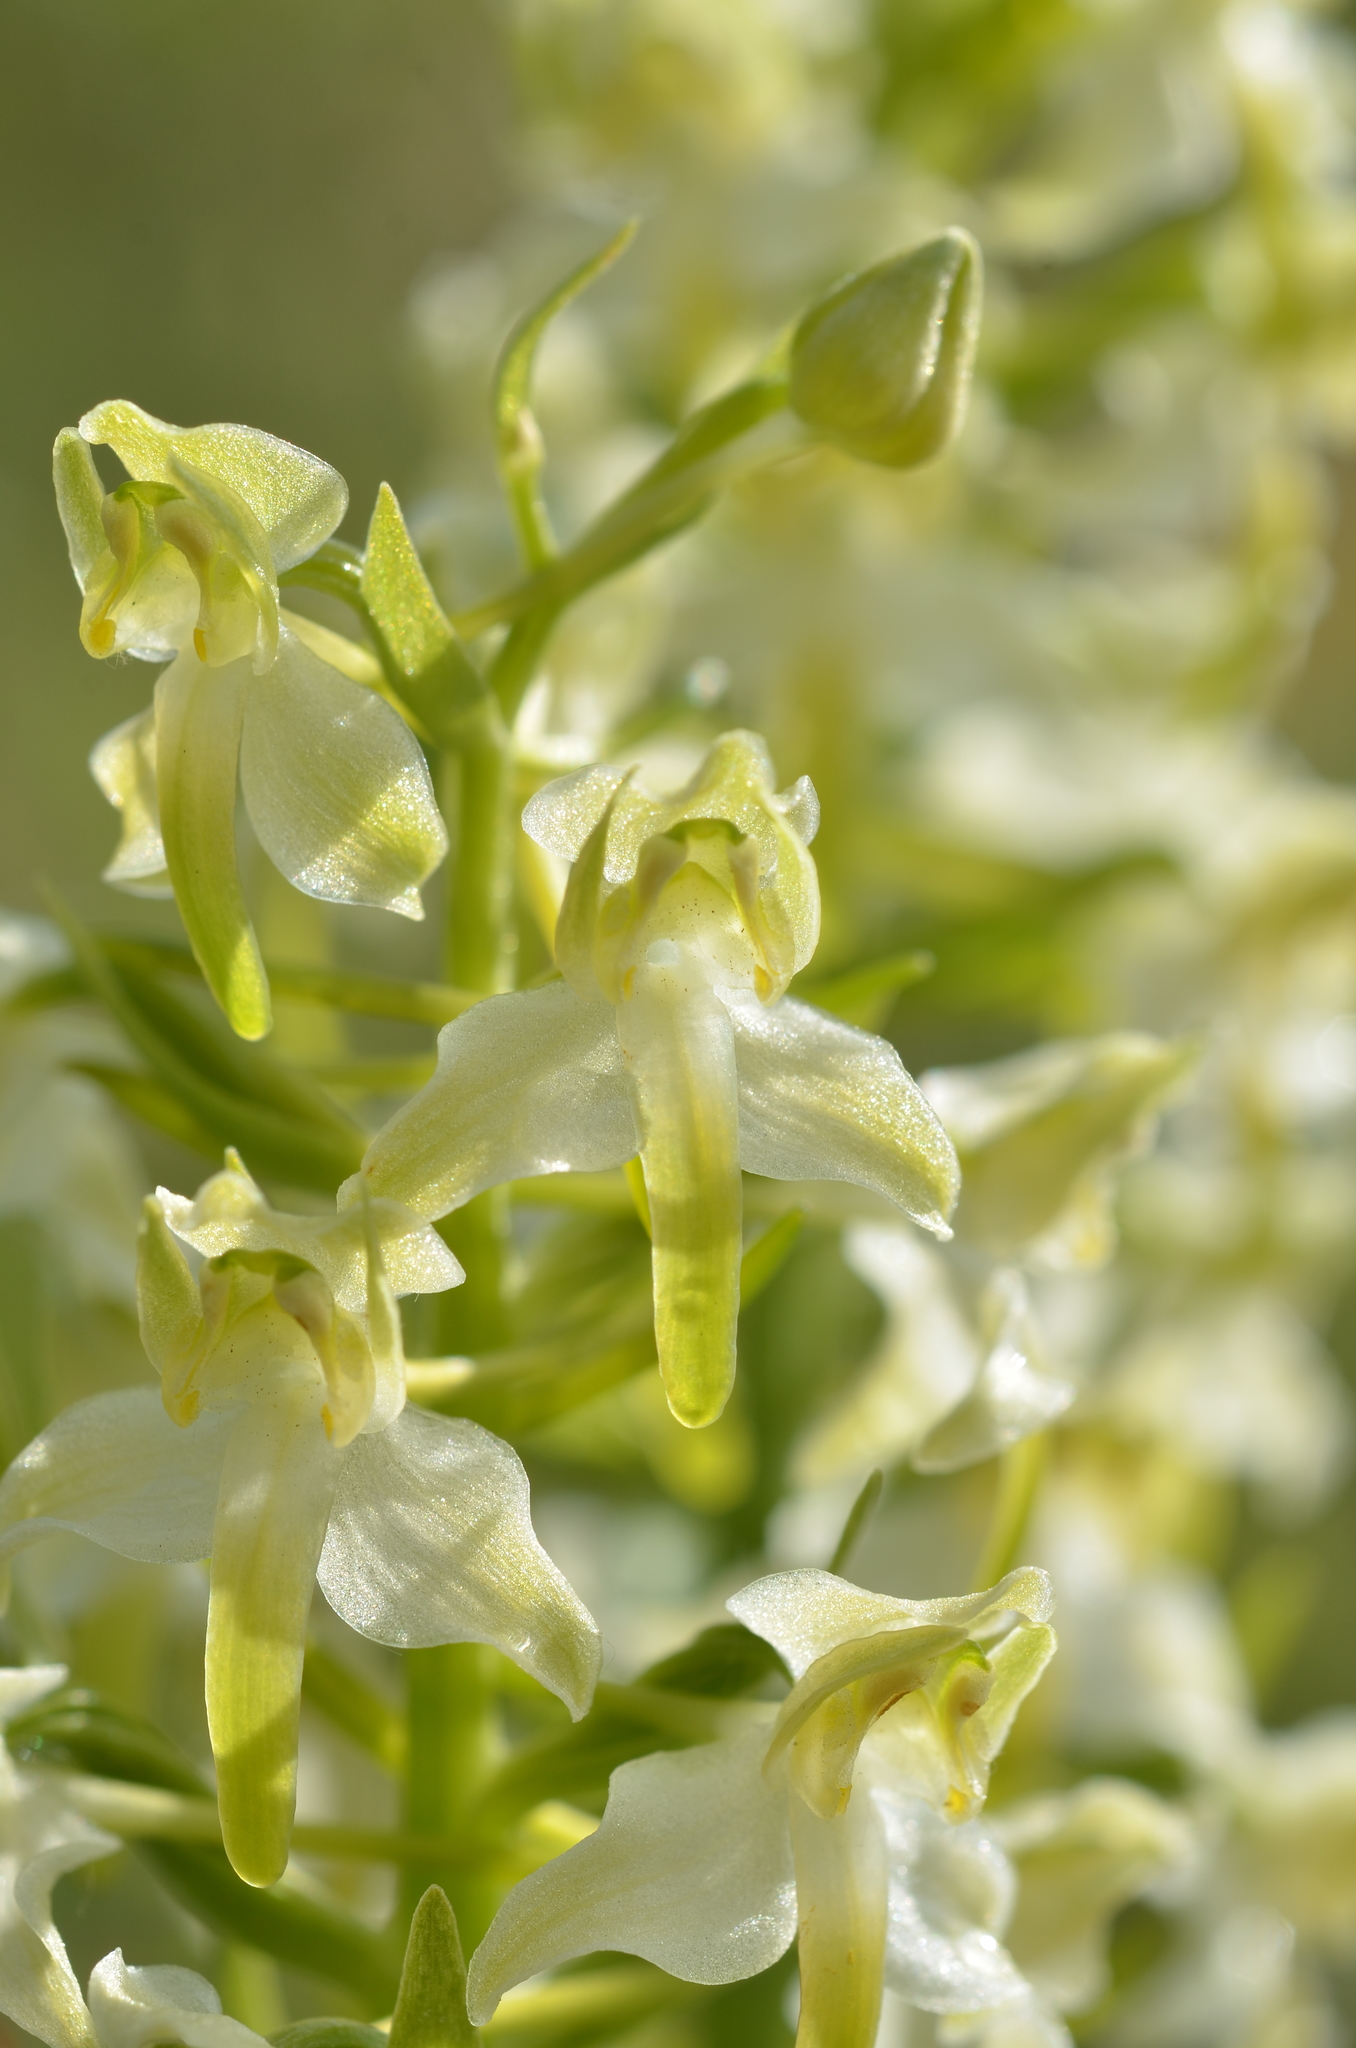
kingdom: Plantae
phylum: Tracheophyta
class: Liliopsida
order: Asparagales
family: Orchidaceae
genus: Platanthera
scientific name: Platanthera chlorantha
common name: Greater butterfly-orchid
